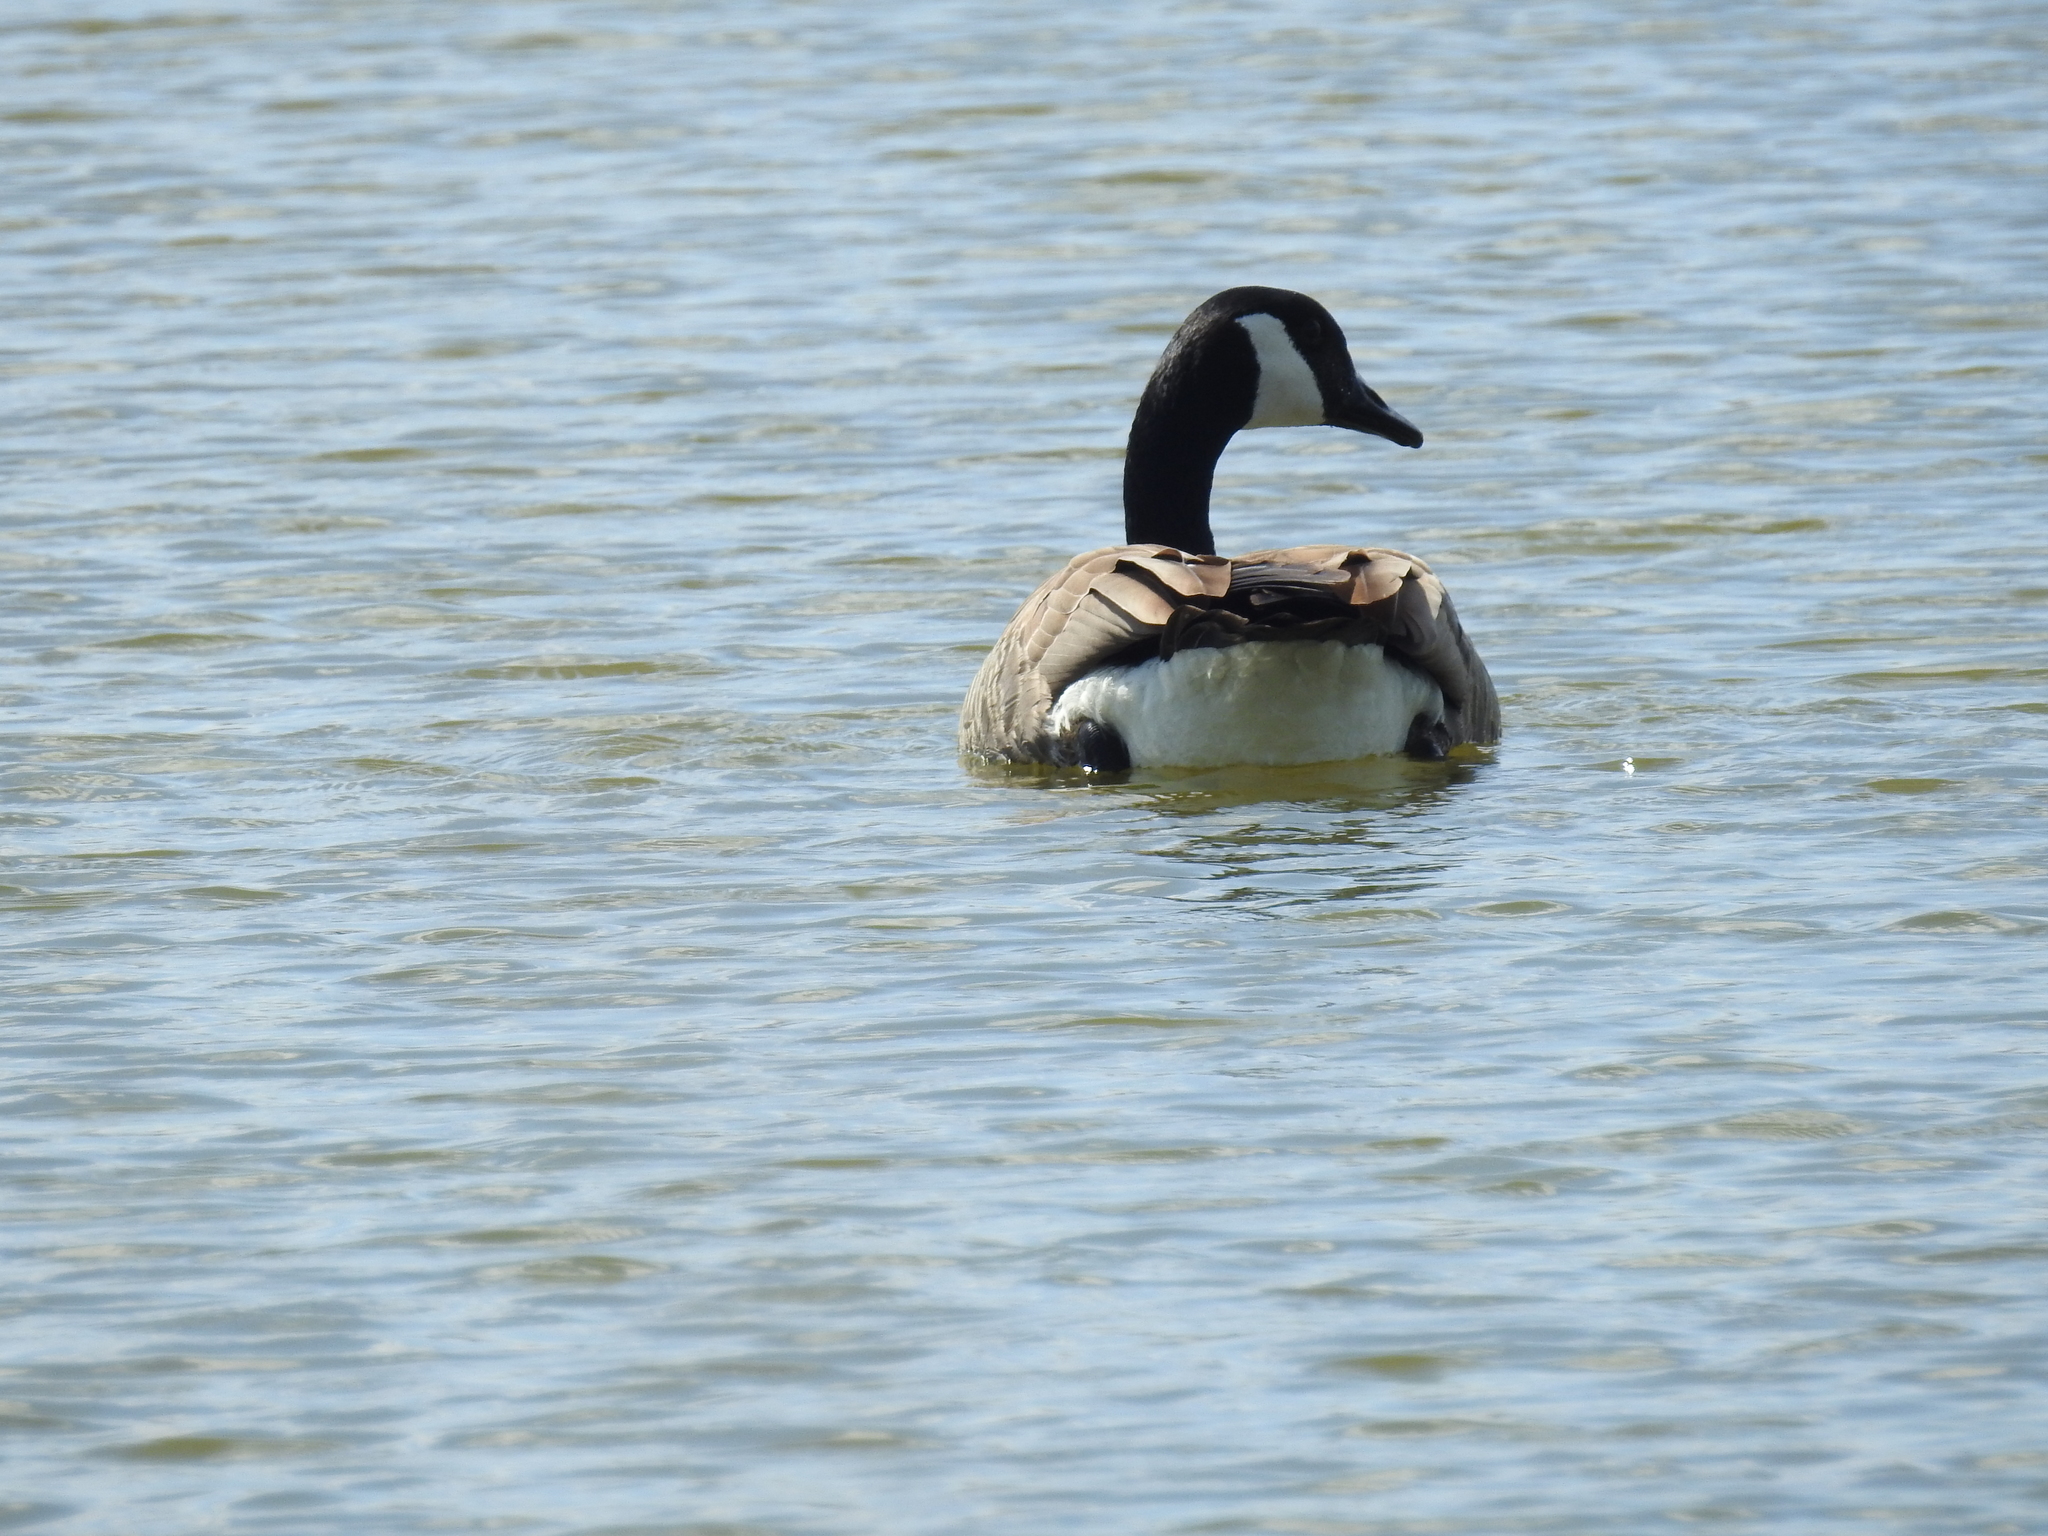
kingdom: Animalia
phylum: Chordata
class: Aves
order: Anseriformes
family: Anatidae
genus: Branta
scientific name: Branta canadensis
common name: Canada goose
